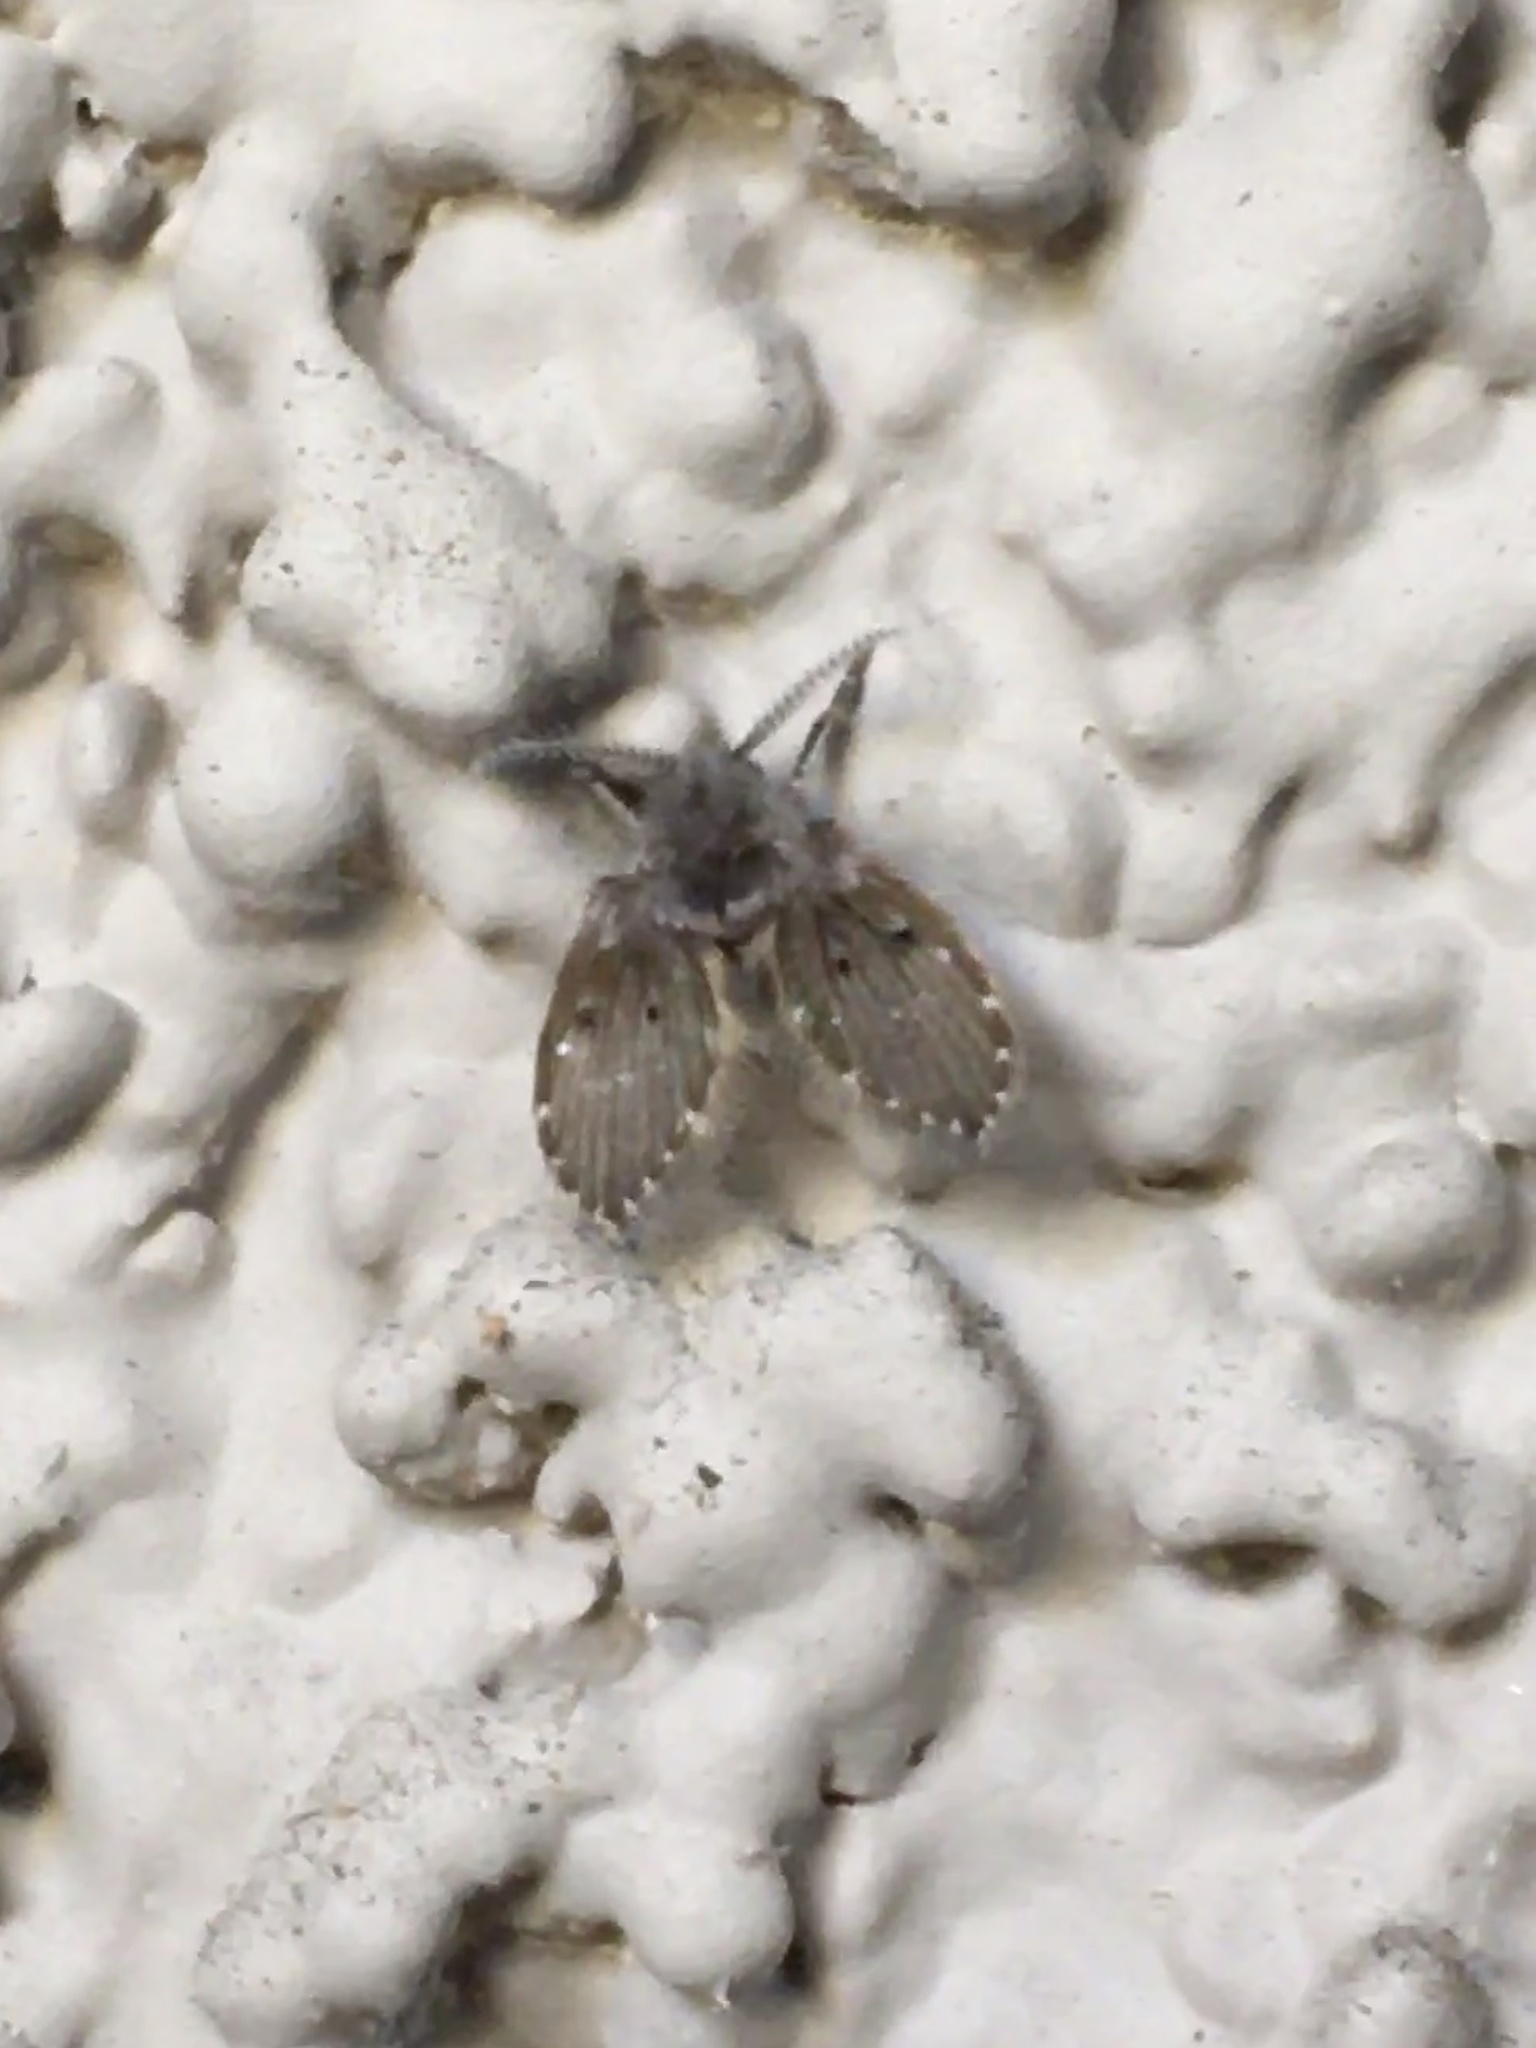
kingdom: Animalia
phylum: Arthropoda
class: Insecta
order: Diptera
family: Psychodidae
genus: Clogmia
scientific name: Clogmia albipunctatus
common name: White-spotted moth fly
